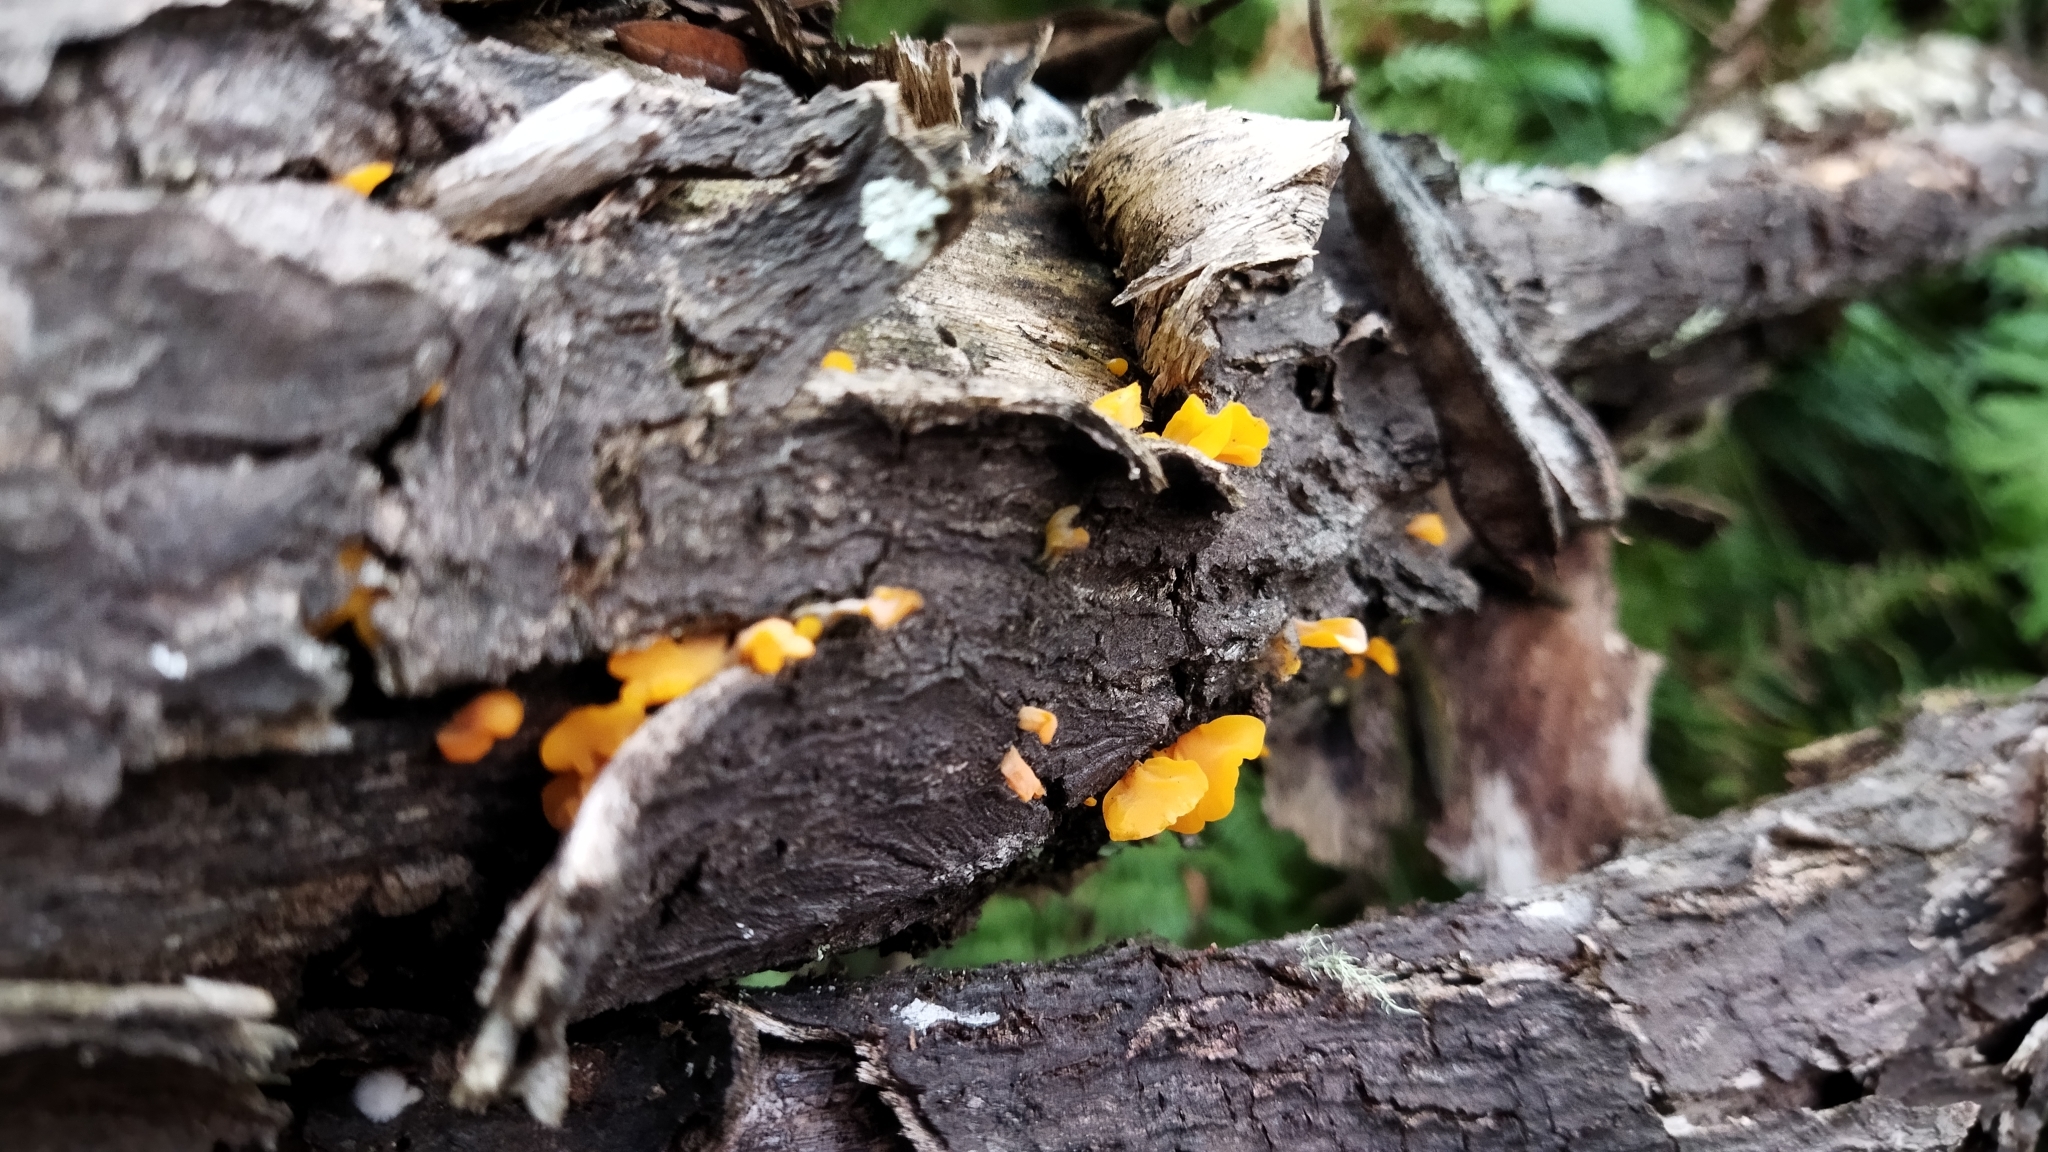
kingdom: Fungi
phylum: Basidiomycota
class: Dacrymycetes
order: Dacrymycetales
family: Dacrymycetaceae
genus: Dacrymyces
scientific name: Dacrymyces spathularius
